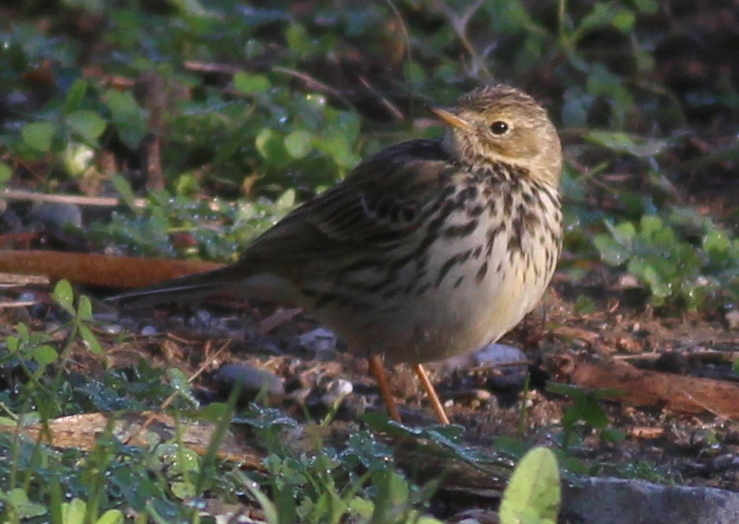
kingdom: Animalia
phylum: Chordata
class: Aves
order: Passeriformes
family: Motacillidae
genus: Anthus
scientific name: Anthus pratensis
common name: Meadow pipit
